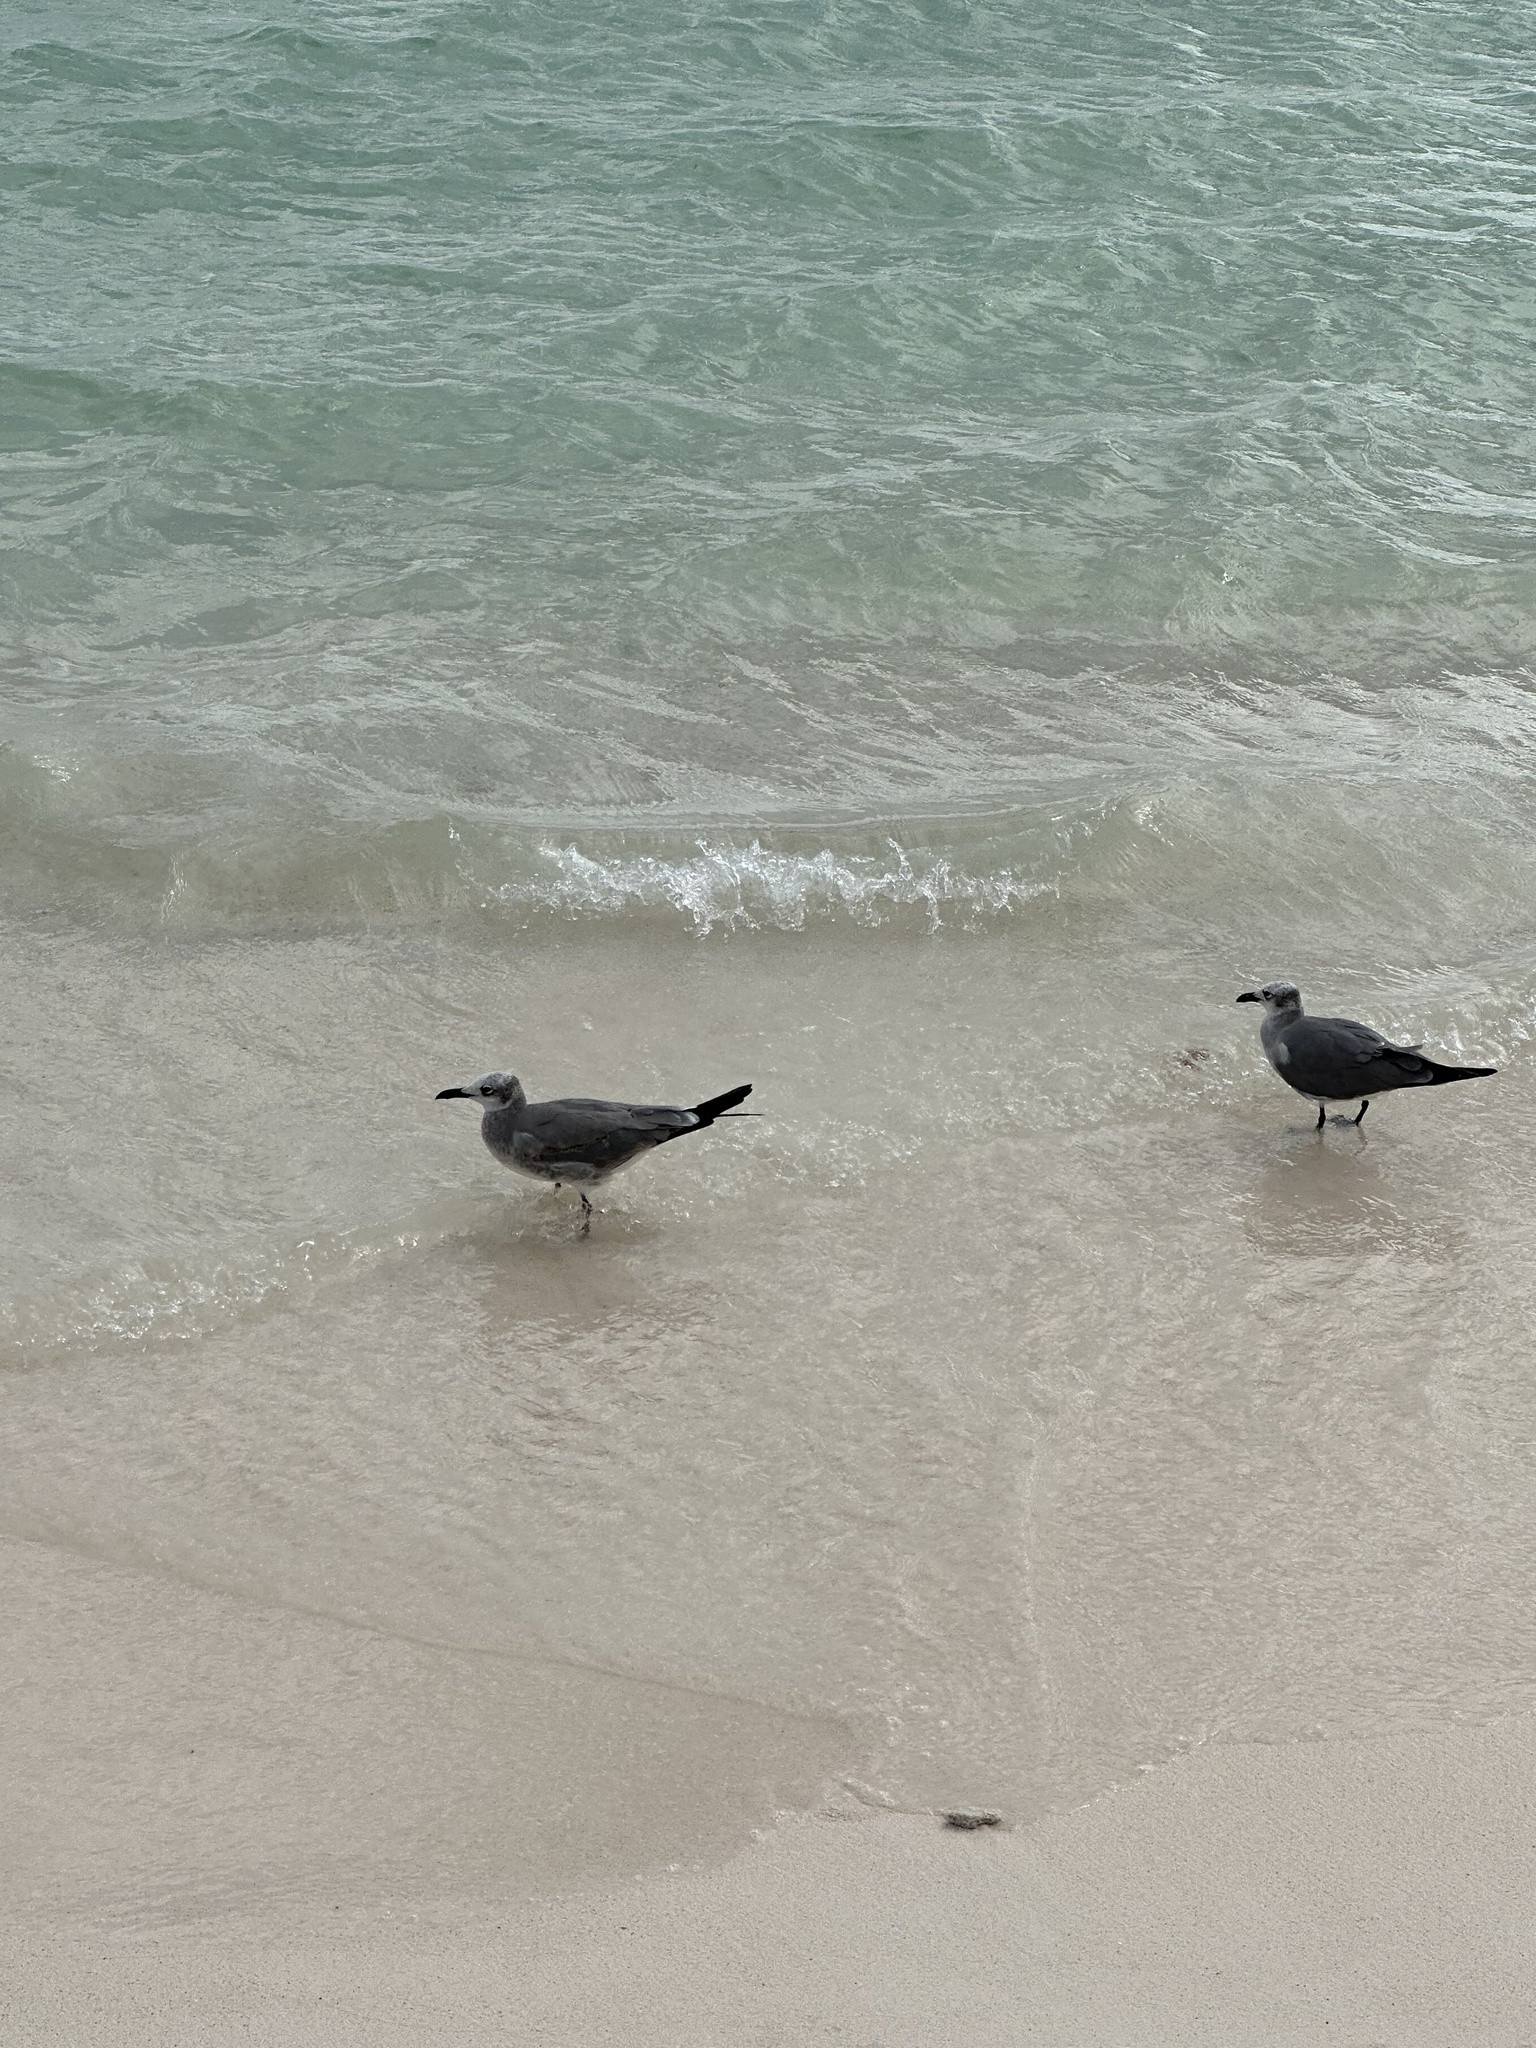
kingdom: Animalia
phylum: Chordata
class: Aves
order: Charadriiformes
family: Laridae
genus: Leucophaeus
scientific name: Leucophaeus atricilla
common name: Laughing gull
